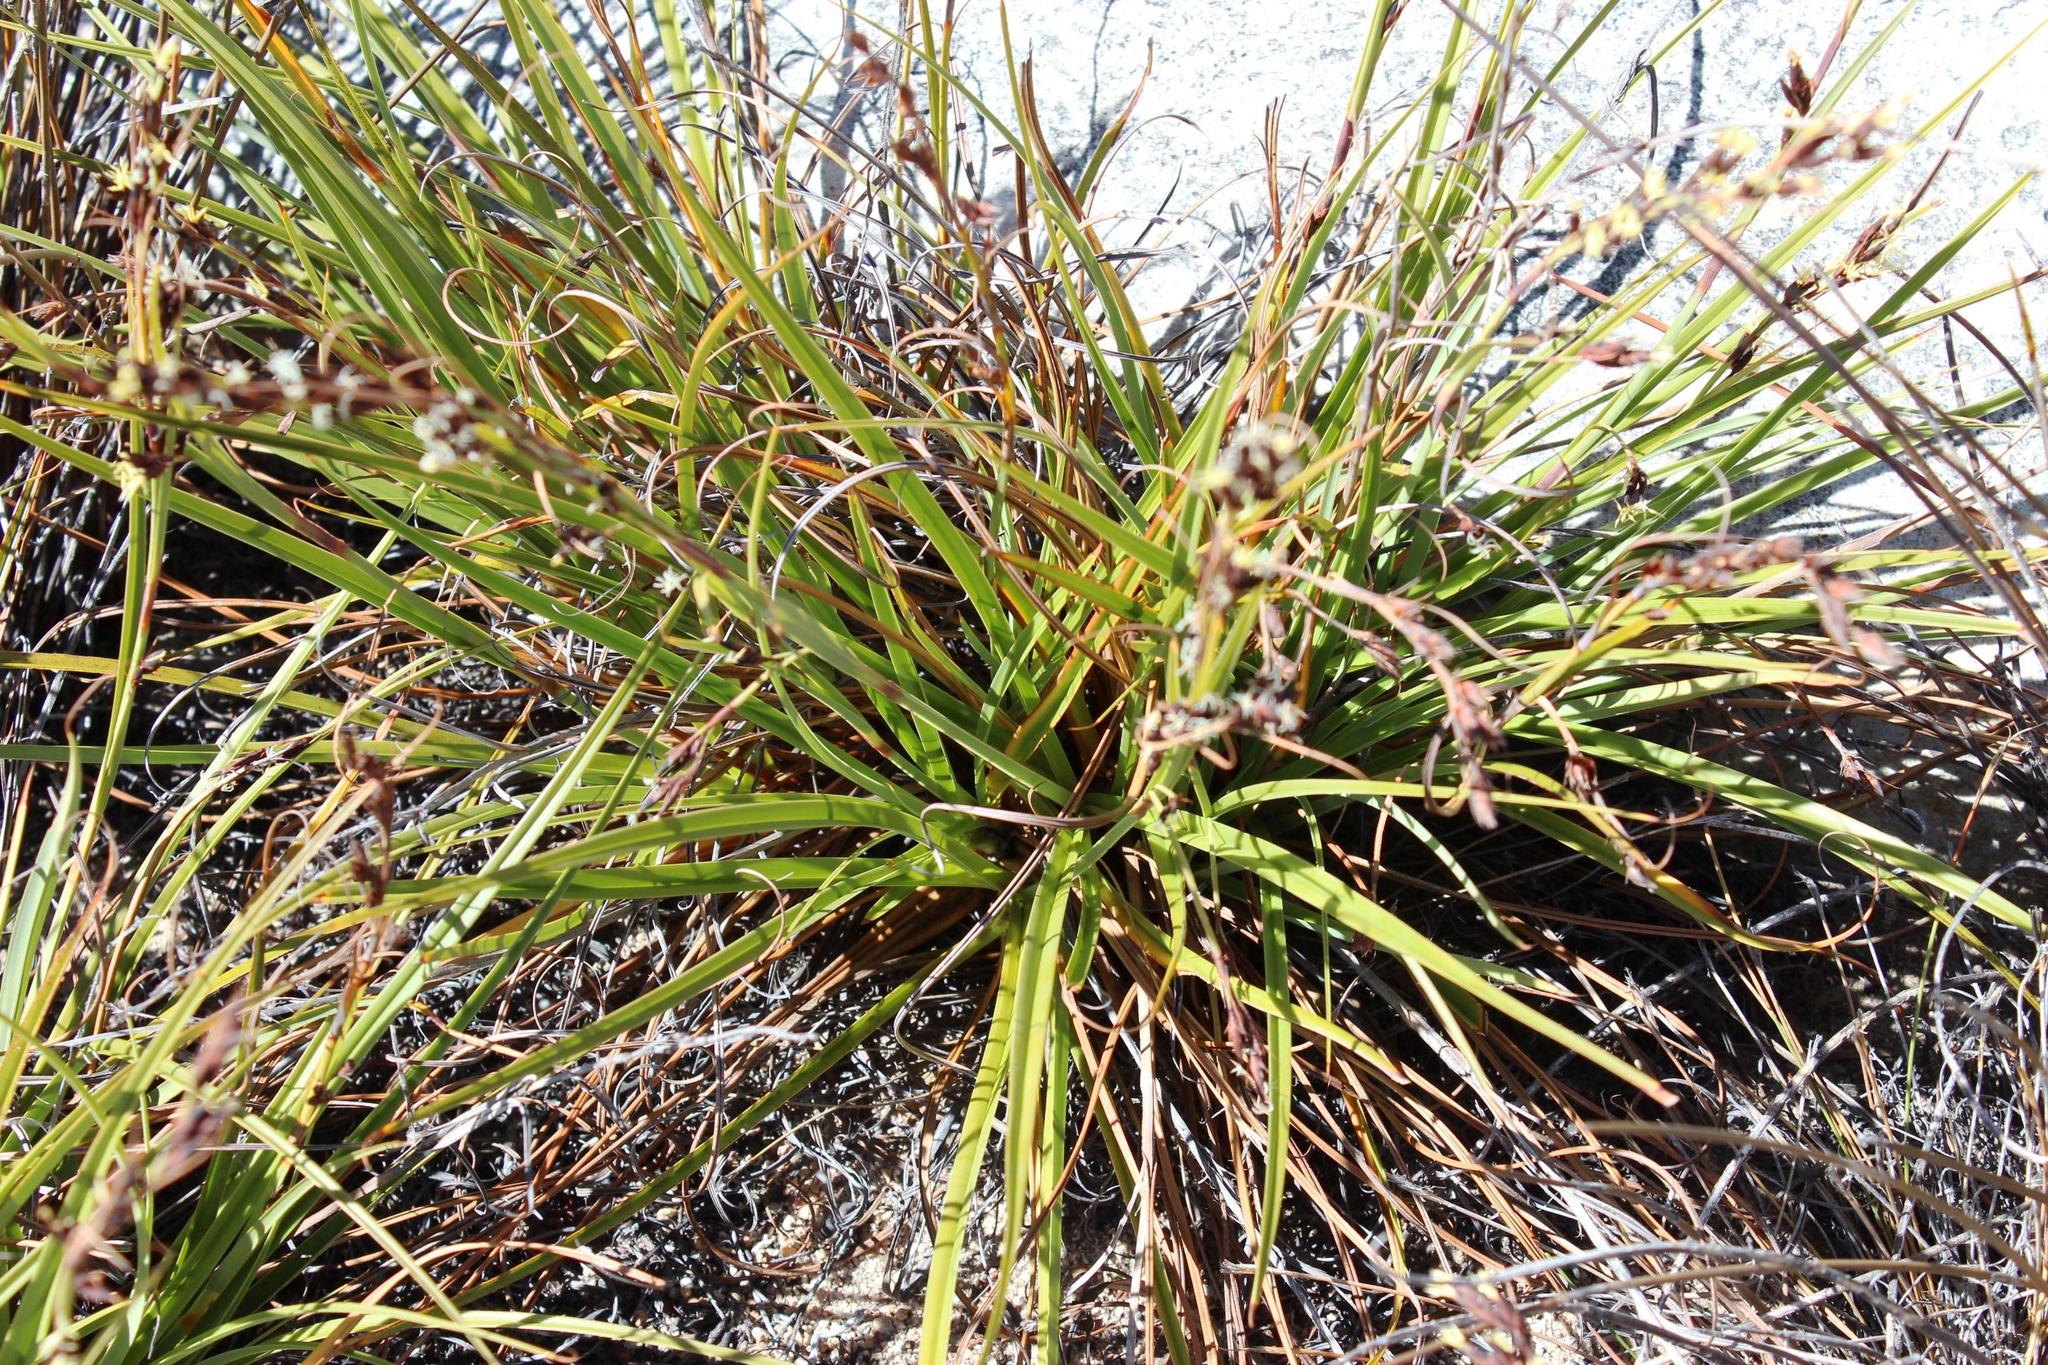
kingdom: Plantae
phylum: Tracheophyta
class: Liliopsida
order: Poales
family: Cyperaceae
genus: Tetraria
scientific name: Tetraria triangularis
